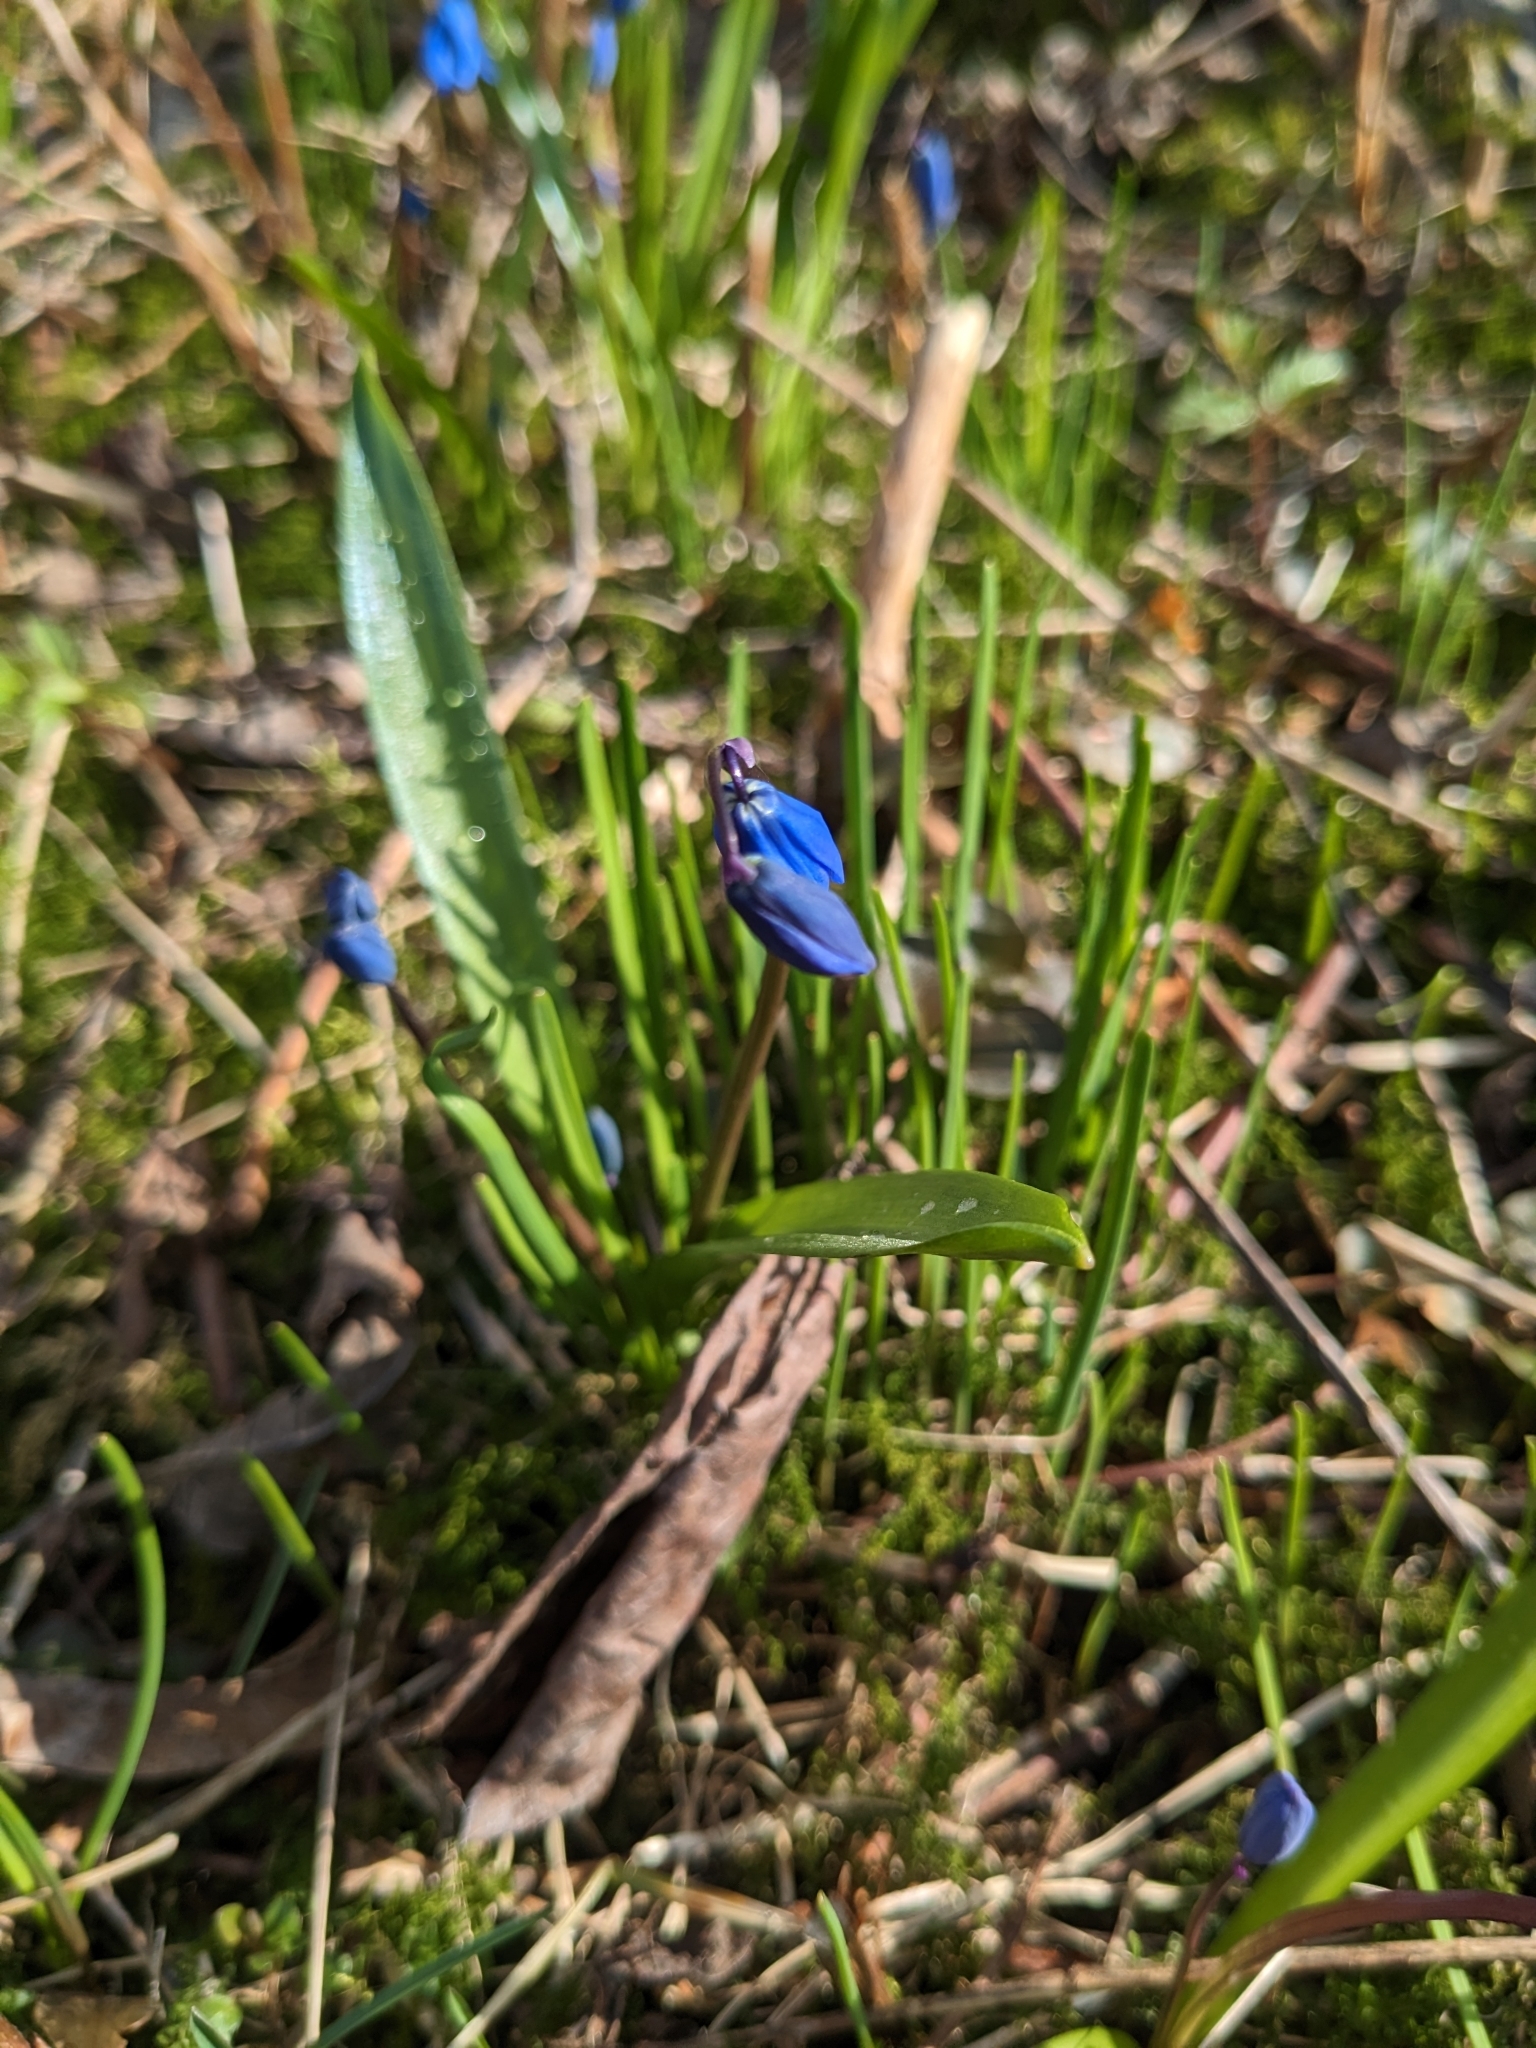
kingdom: Plantae
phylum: Tracheophyta
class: Liliopsida
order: Asparagales
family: Asparagaceae
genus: Scilla
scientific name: Scilla siberica
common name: Siberian squill
